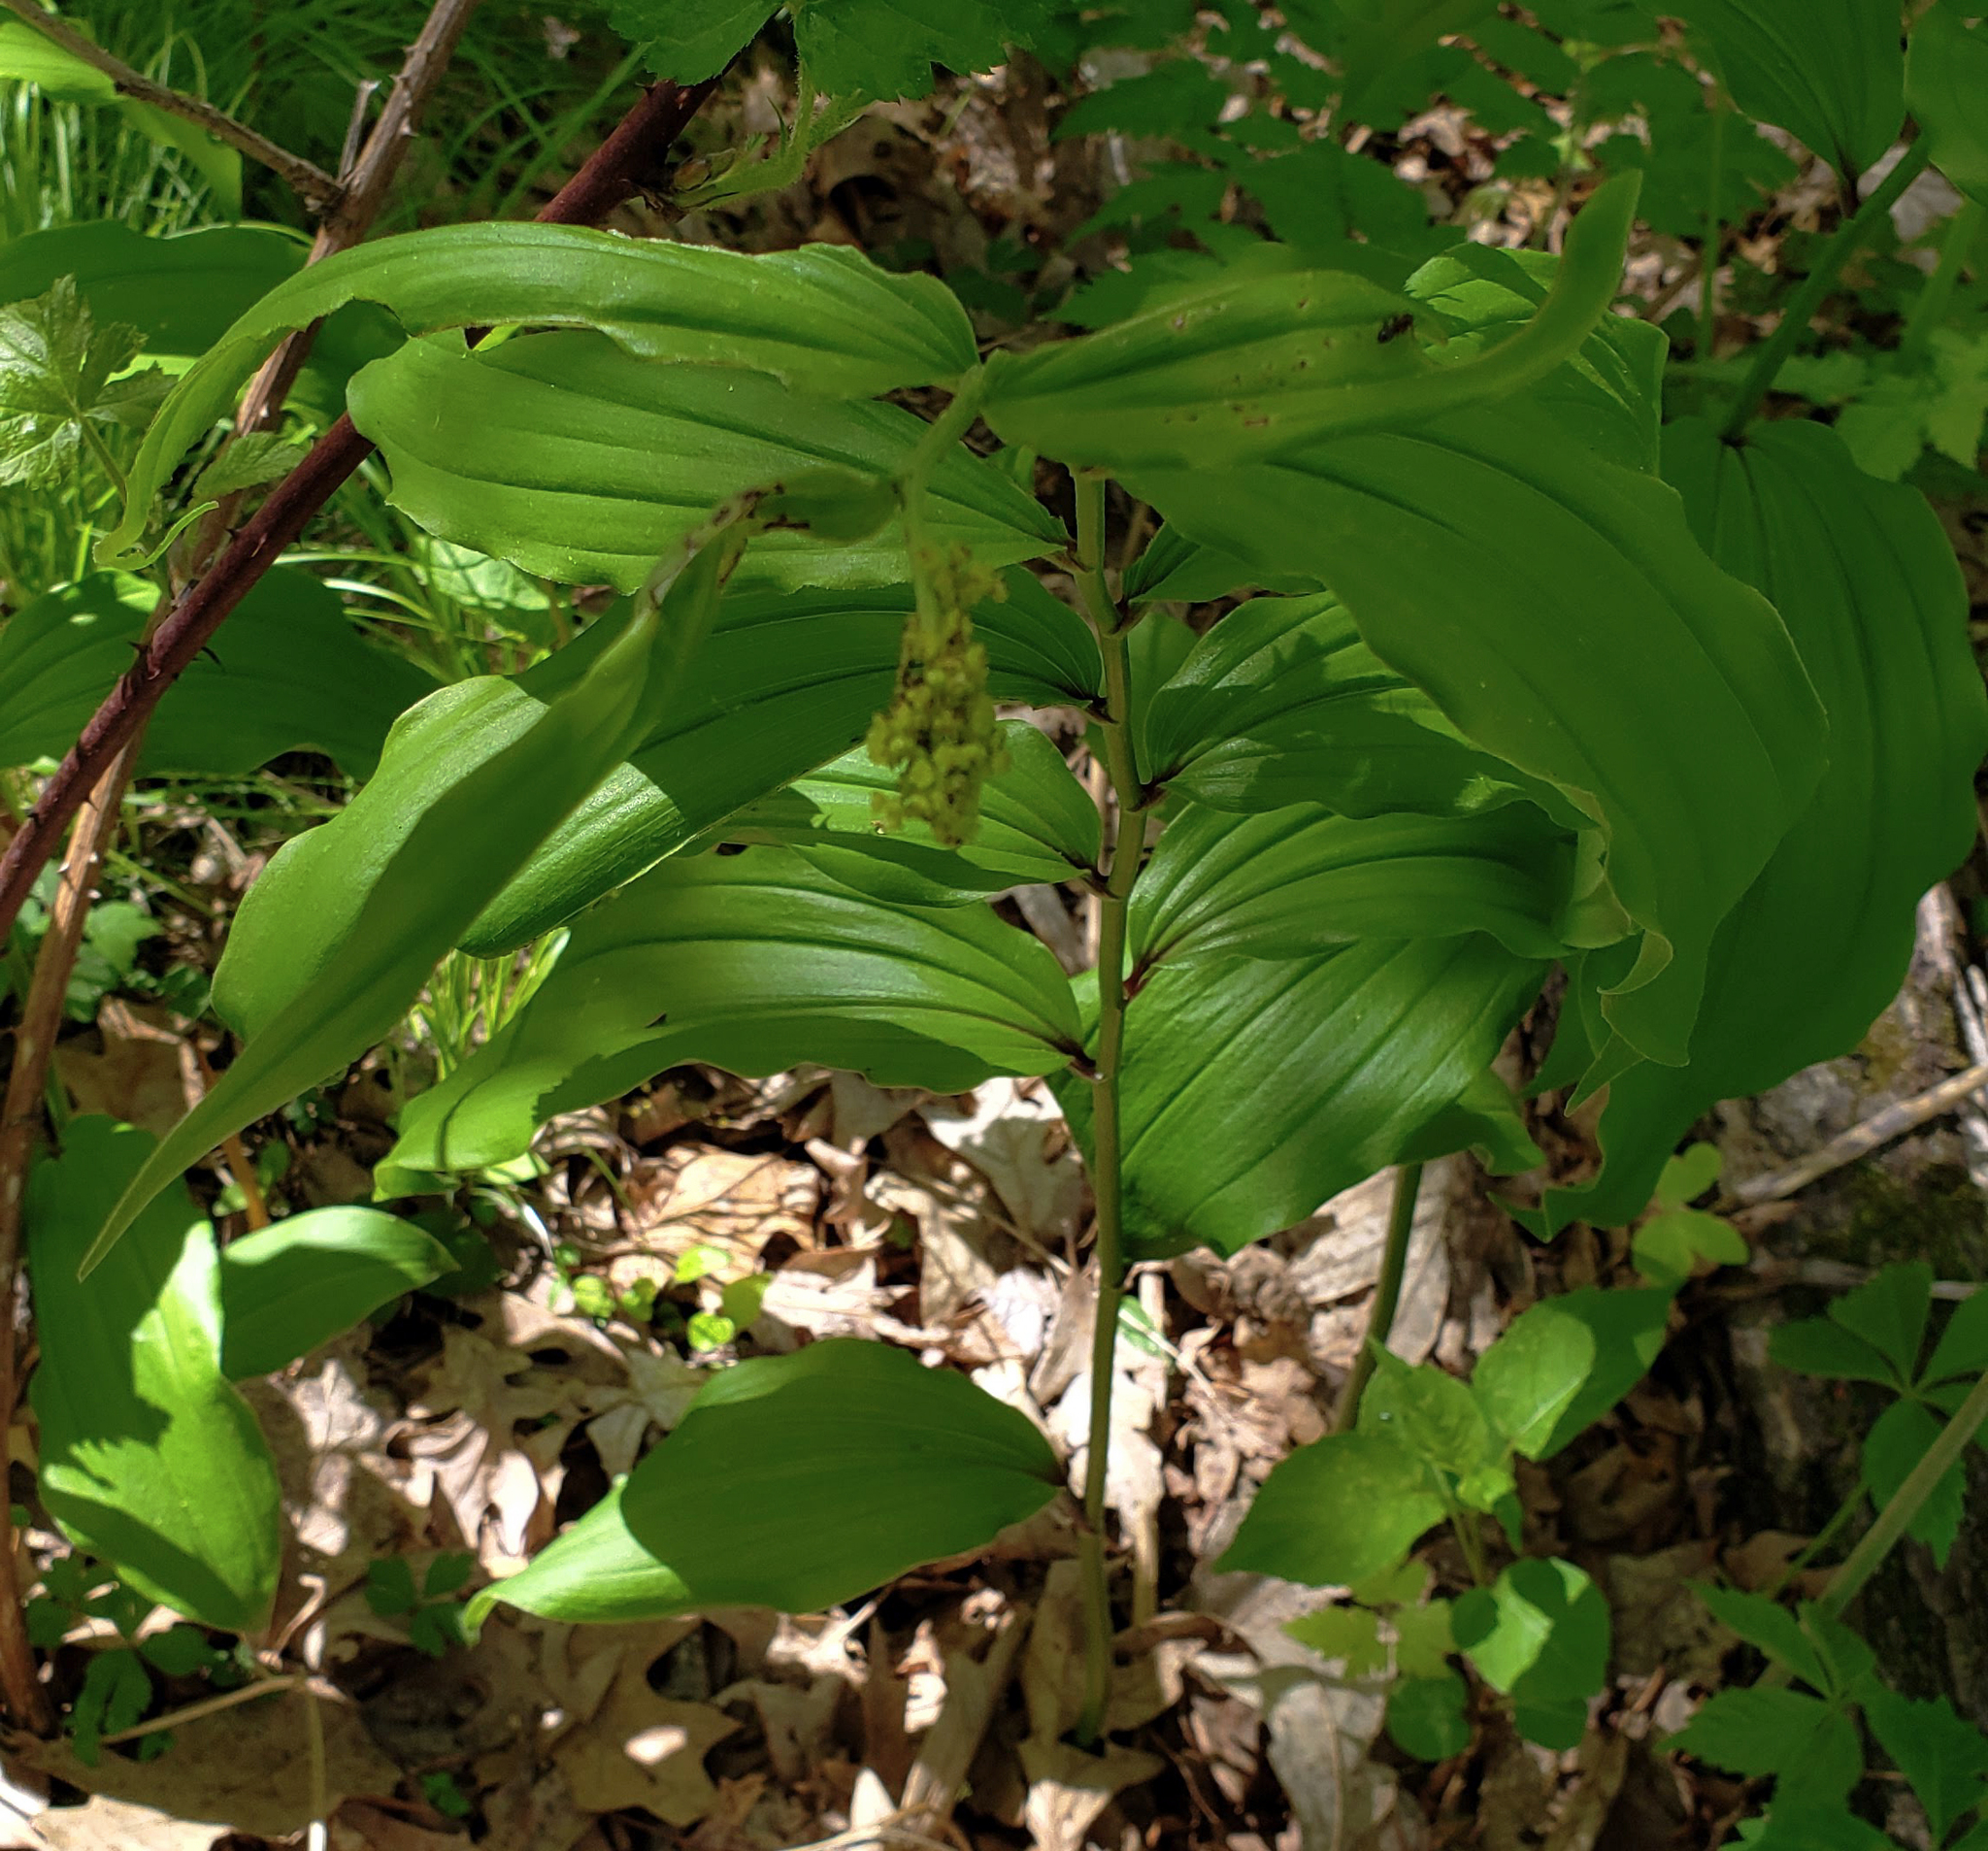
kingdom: Plantae
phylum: Tracheophyta
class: Liliopsida
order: Asparagales
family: Asparagaceae
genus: Maianthemum
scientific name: Maianthemum racemosum
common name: False spikenard
